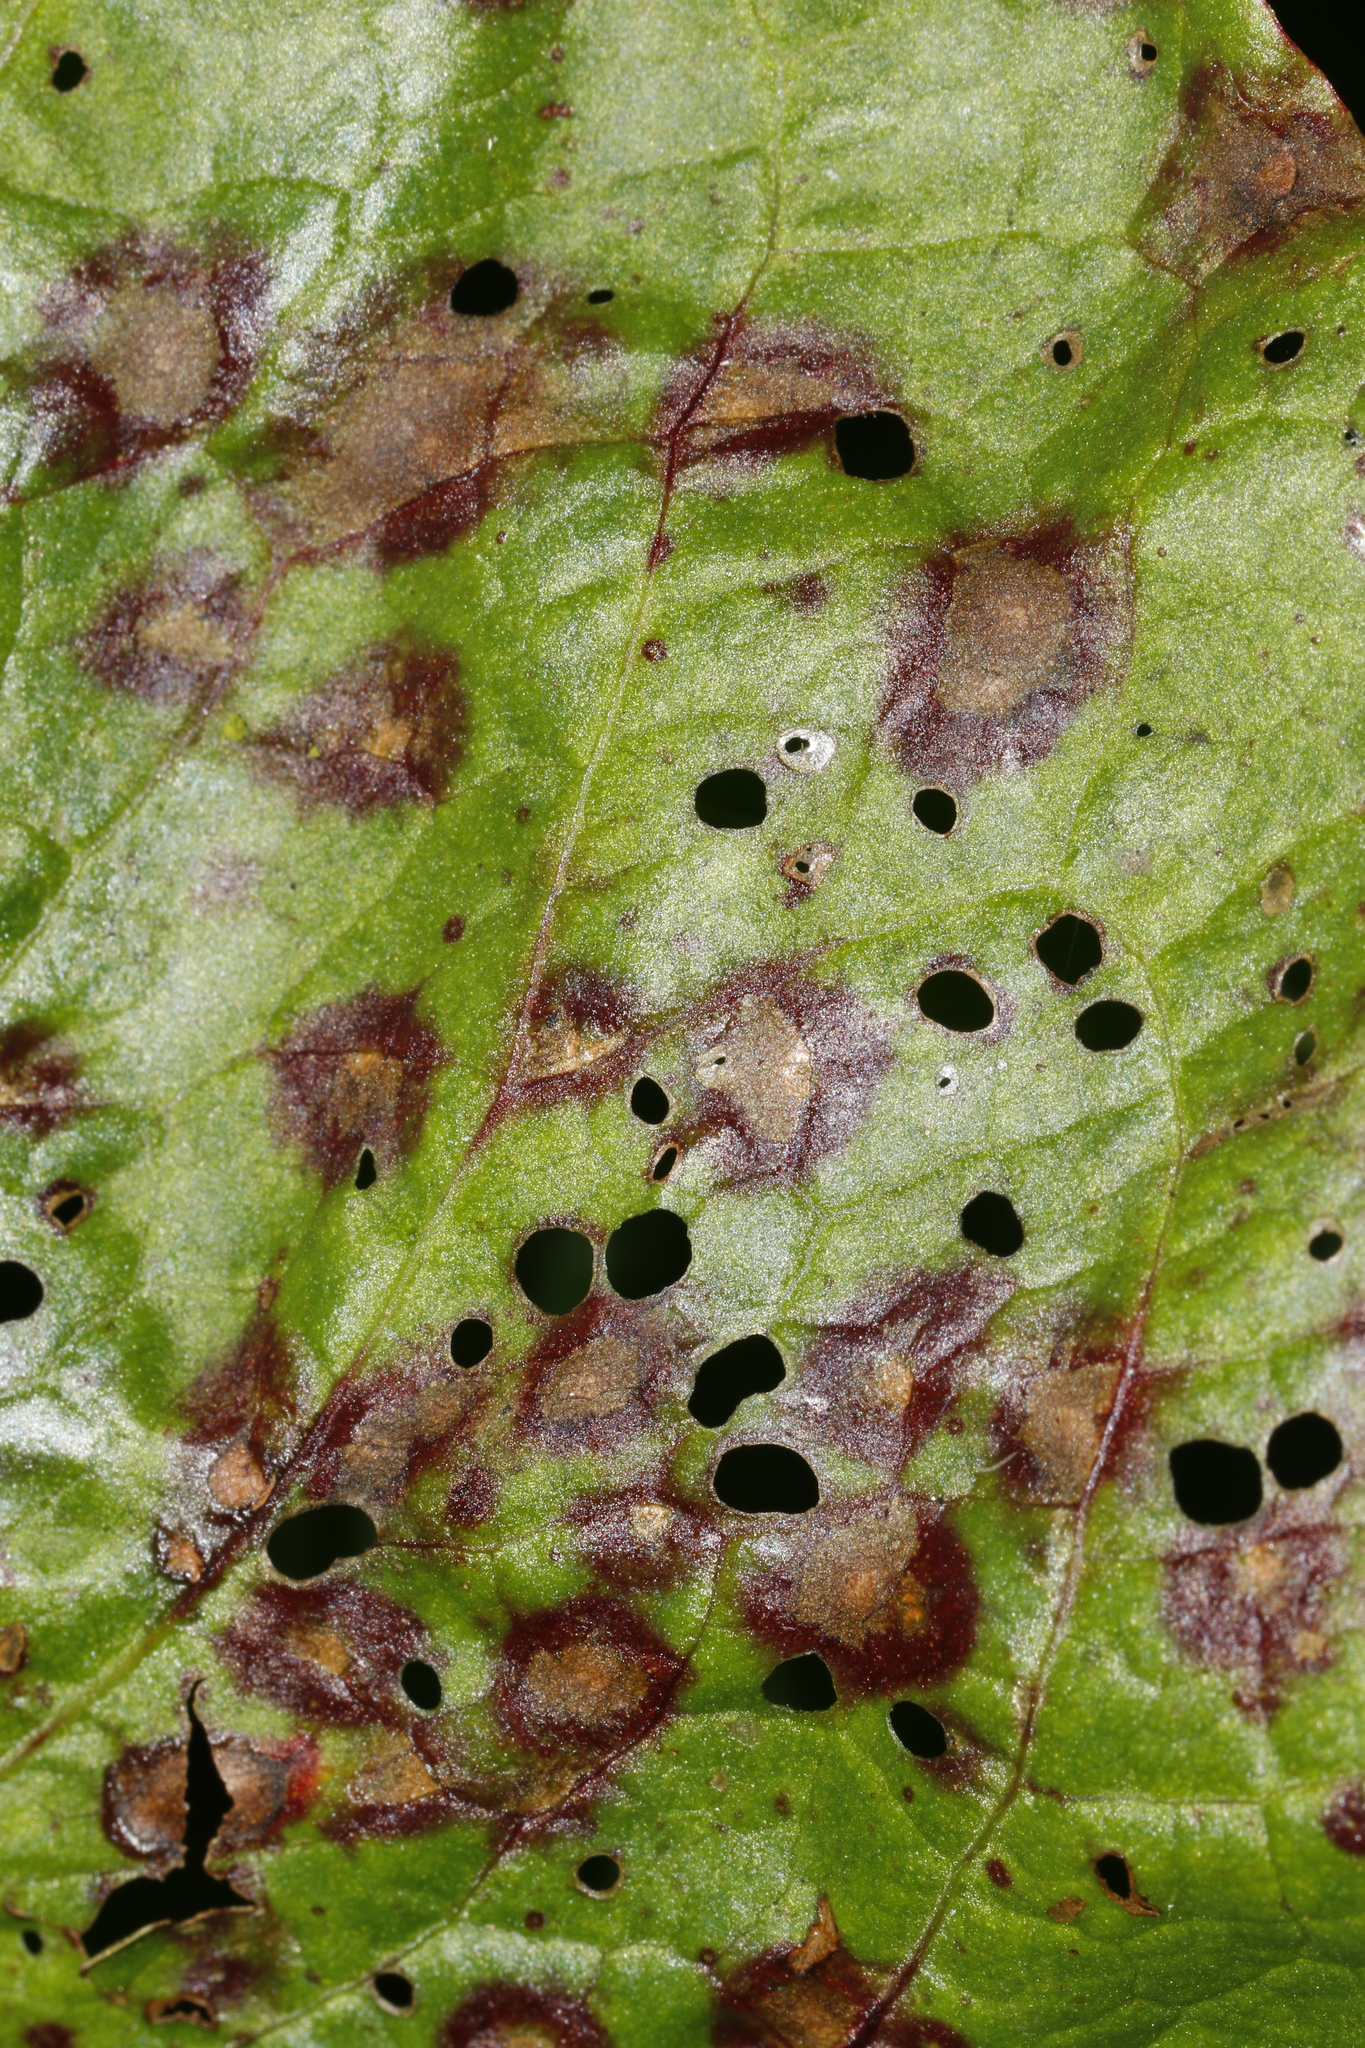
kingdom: Fungi
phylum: Ascomycota
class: Dothideomycetes
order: Mycosphaerellales
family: Mycosphaerellaceae
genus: Ramularia
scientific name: Ramularia rubella
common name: Red dock spot
